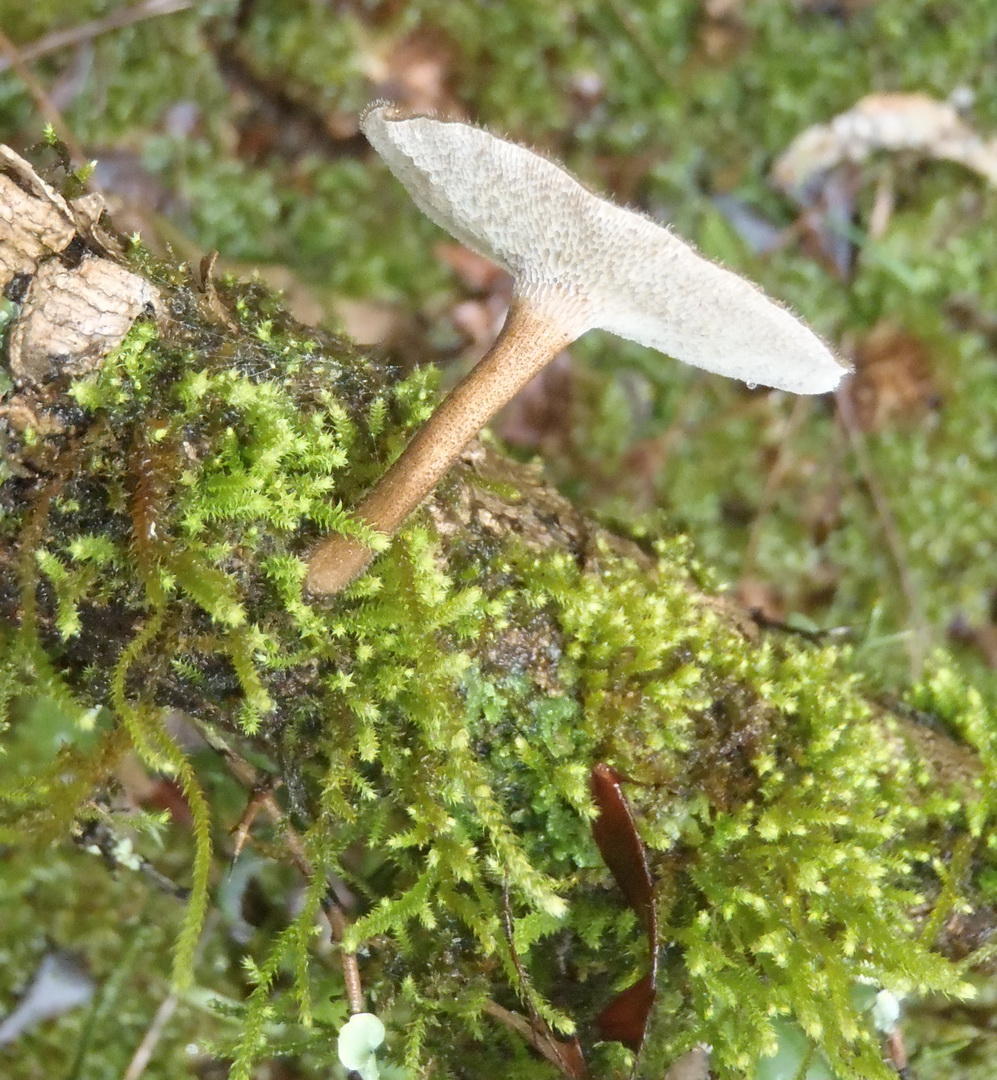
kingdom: Fungi
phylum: Basidiomycota
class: Agaricomycetes
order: Polyporales
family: Polyporaceae
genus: Lentinus
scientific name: Lentinus arcularius
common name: Spring polypore
